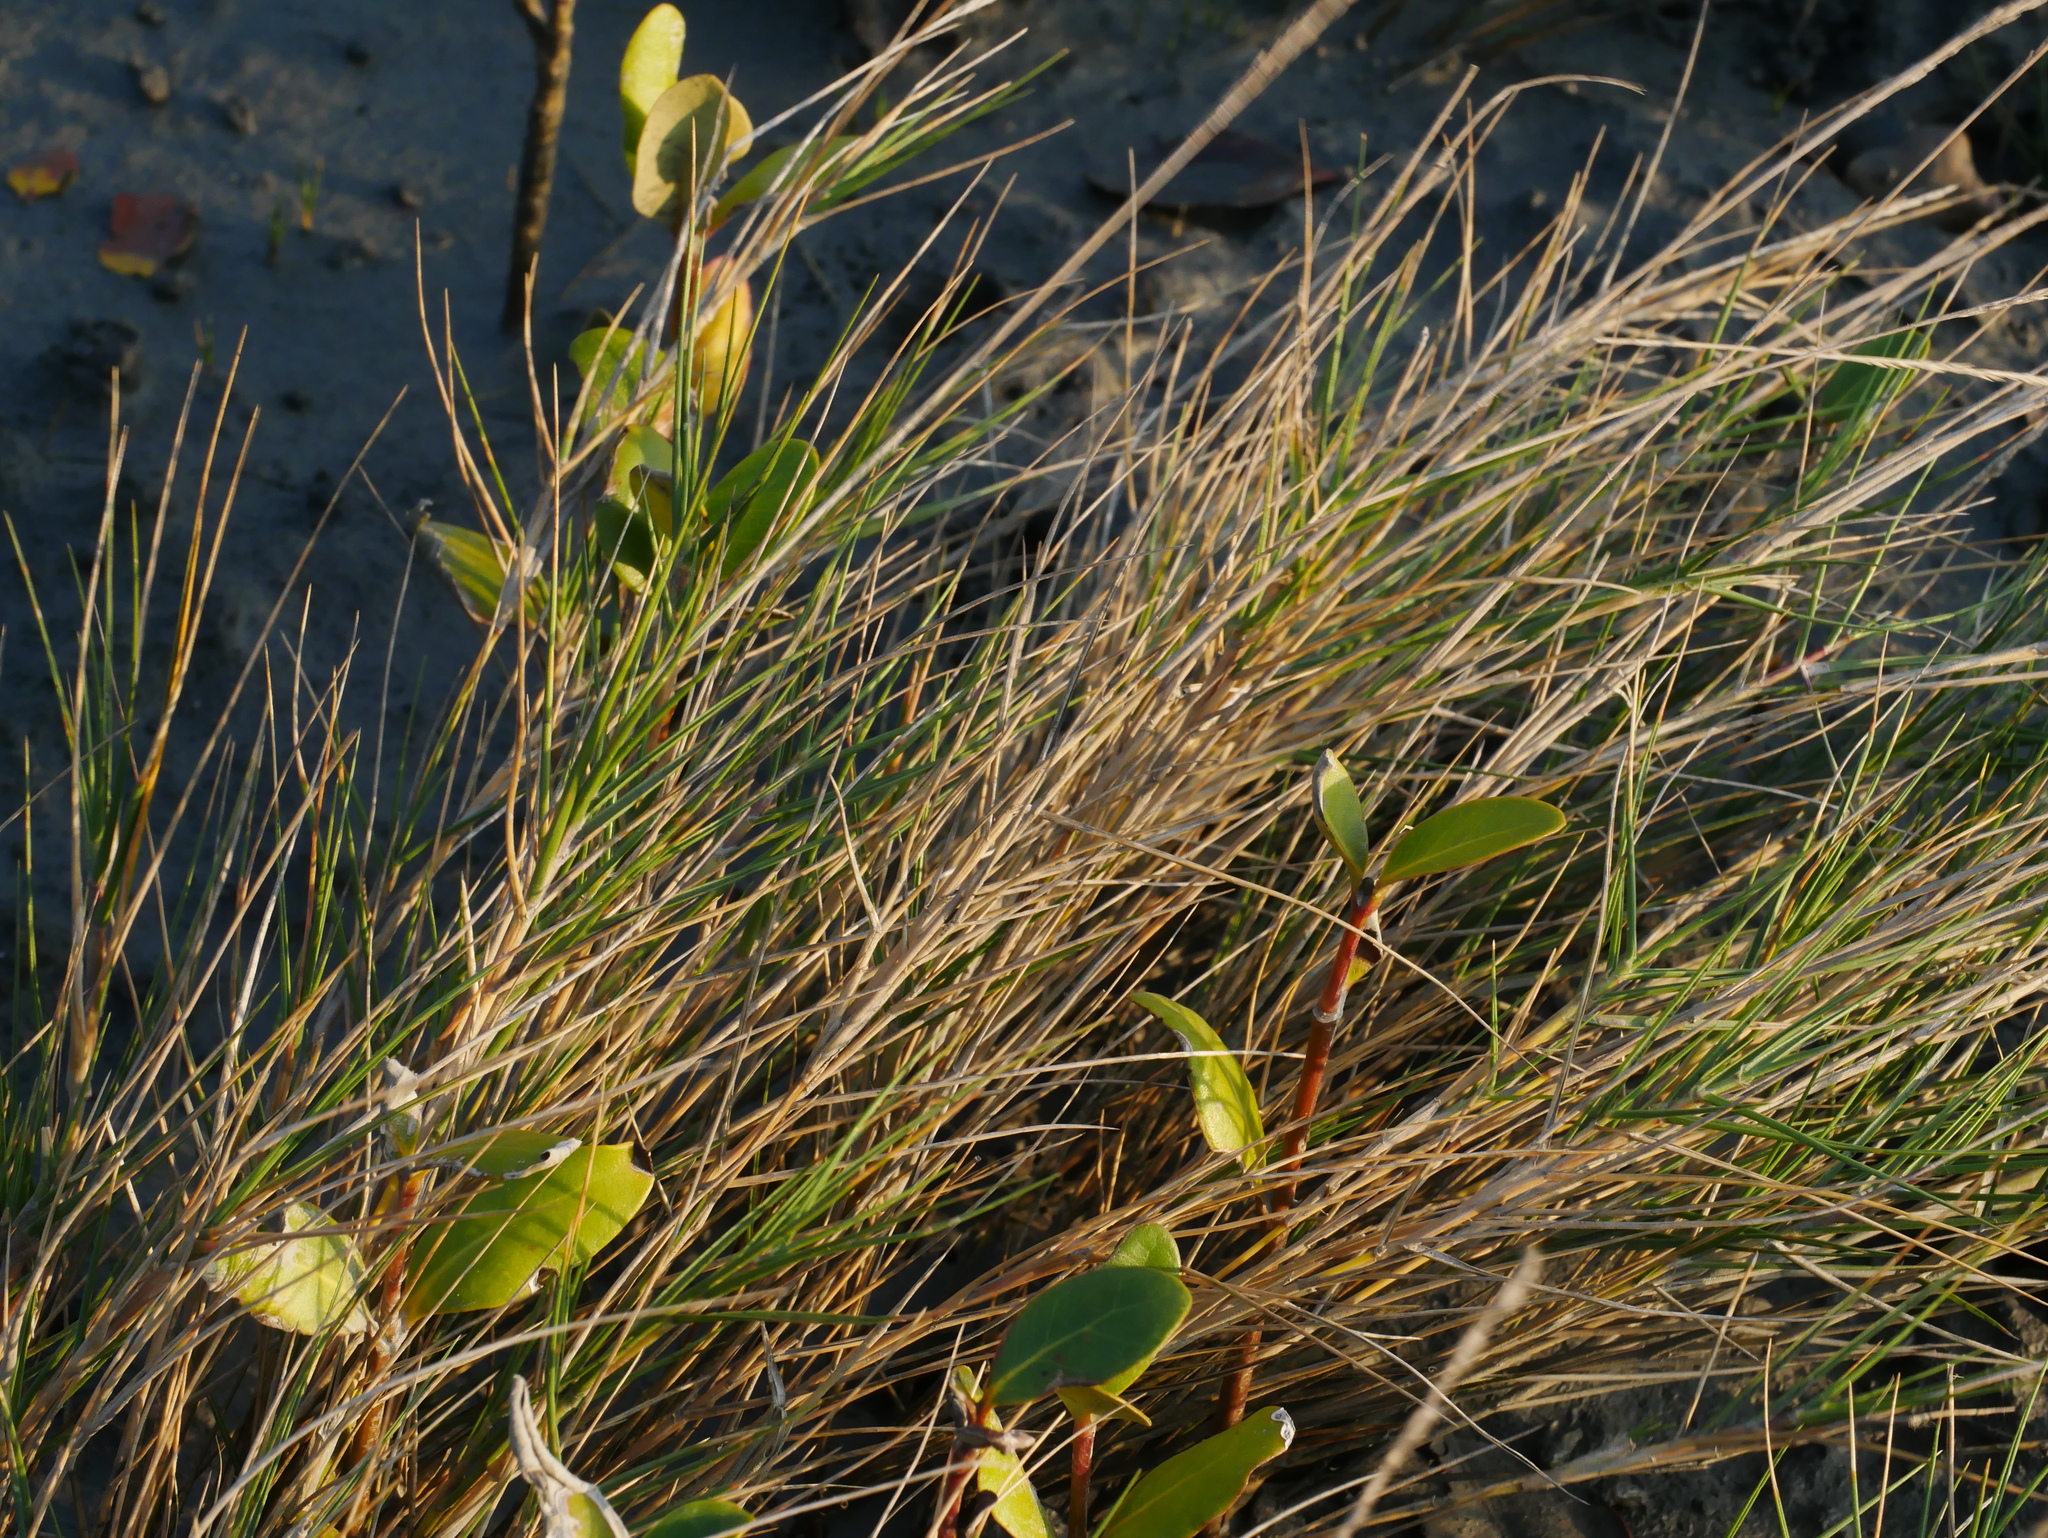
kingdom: Plantae
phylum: Tracheophyta
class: Liliopsida
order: Poales
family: Poaceae
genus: Sporobolus
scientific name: Sporobolus virginicus
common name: Beach dropseed
